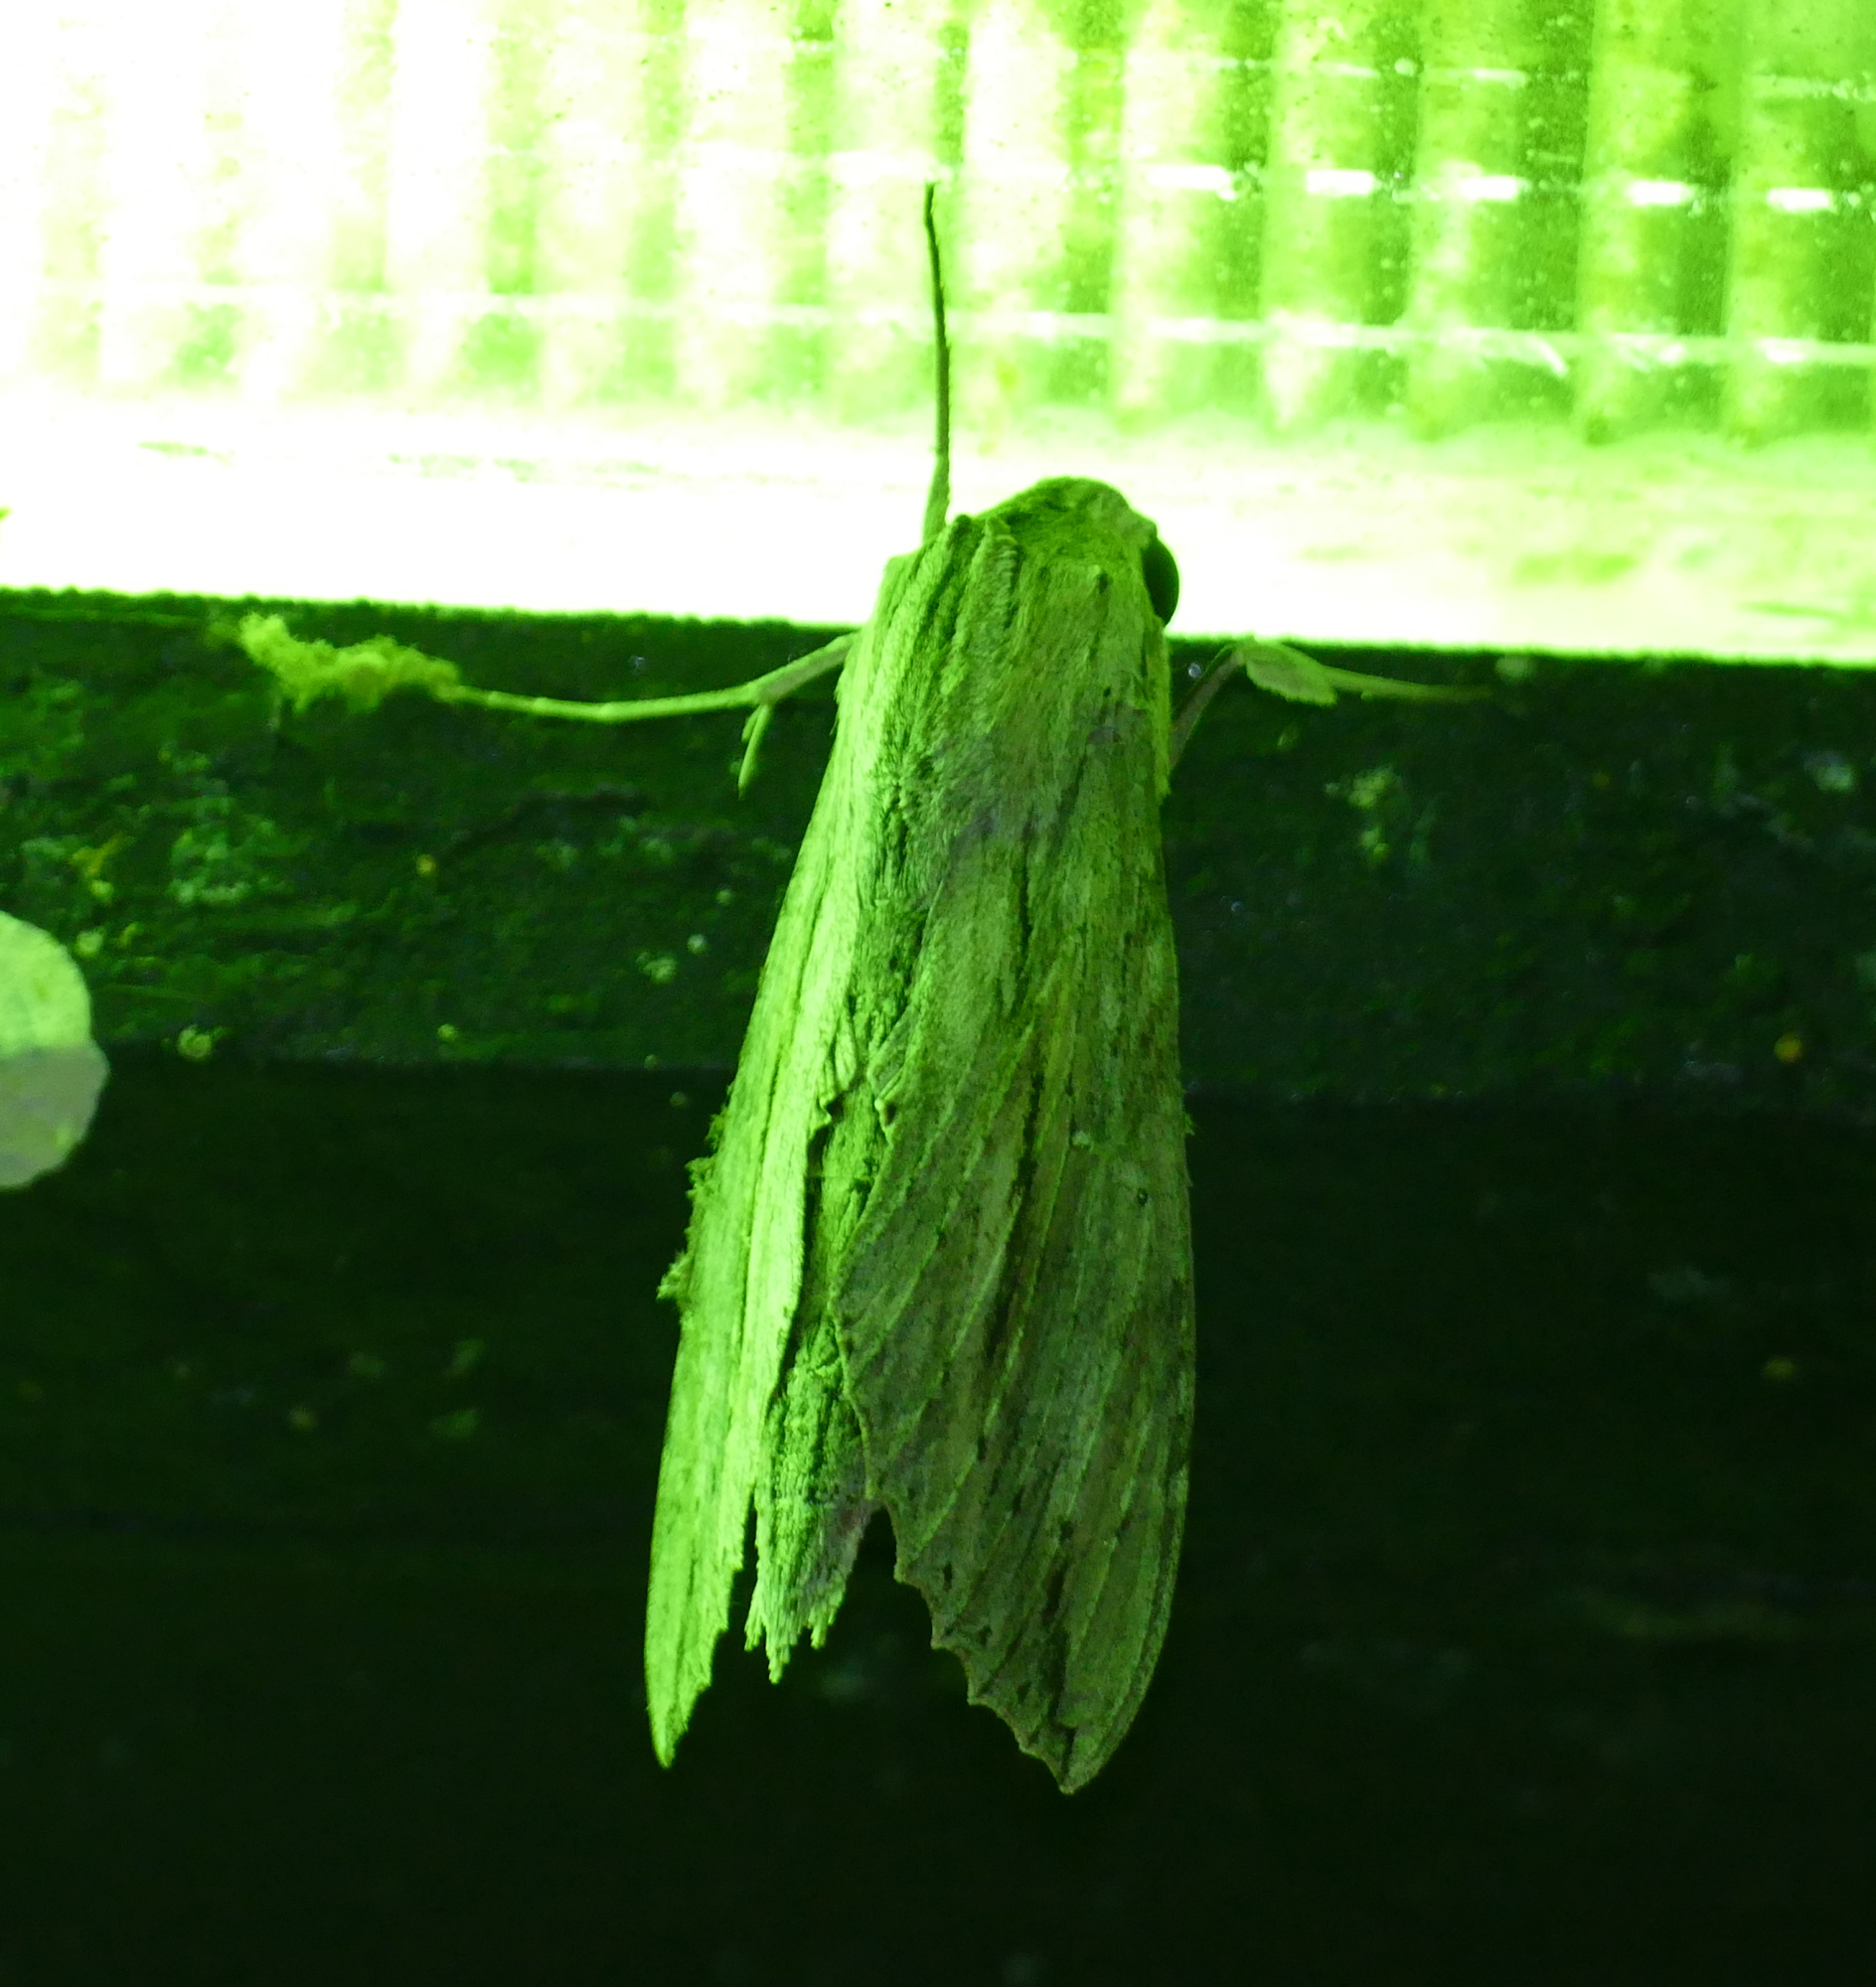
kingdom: Animalia
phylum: Arthropoda
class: Insecta
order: Lepidoptera
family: Sphingidae
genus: Erinnyis
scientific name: Erinnyis ello
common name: Ello sphinx
